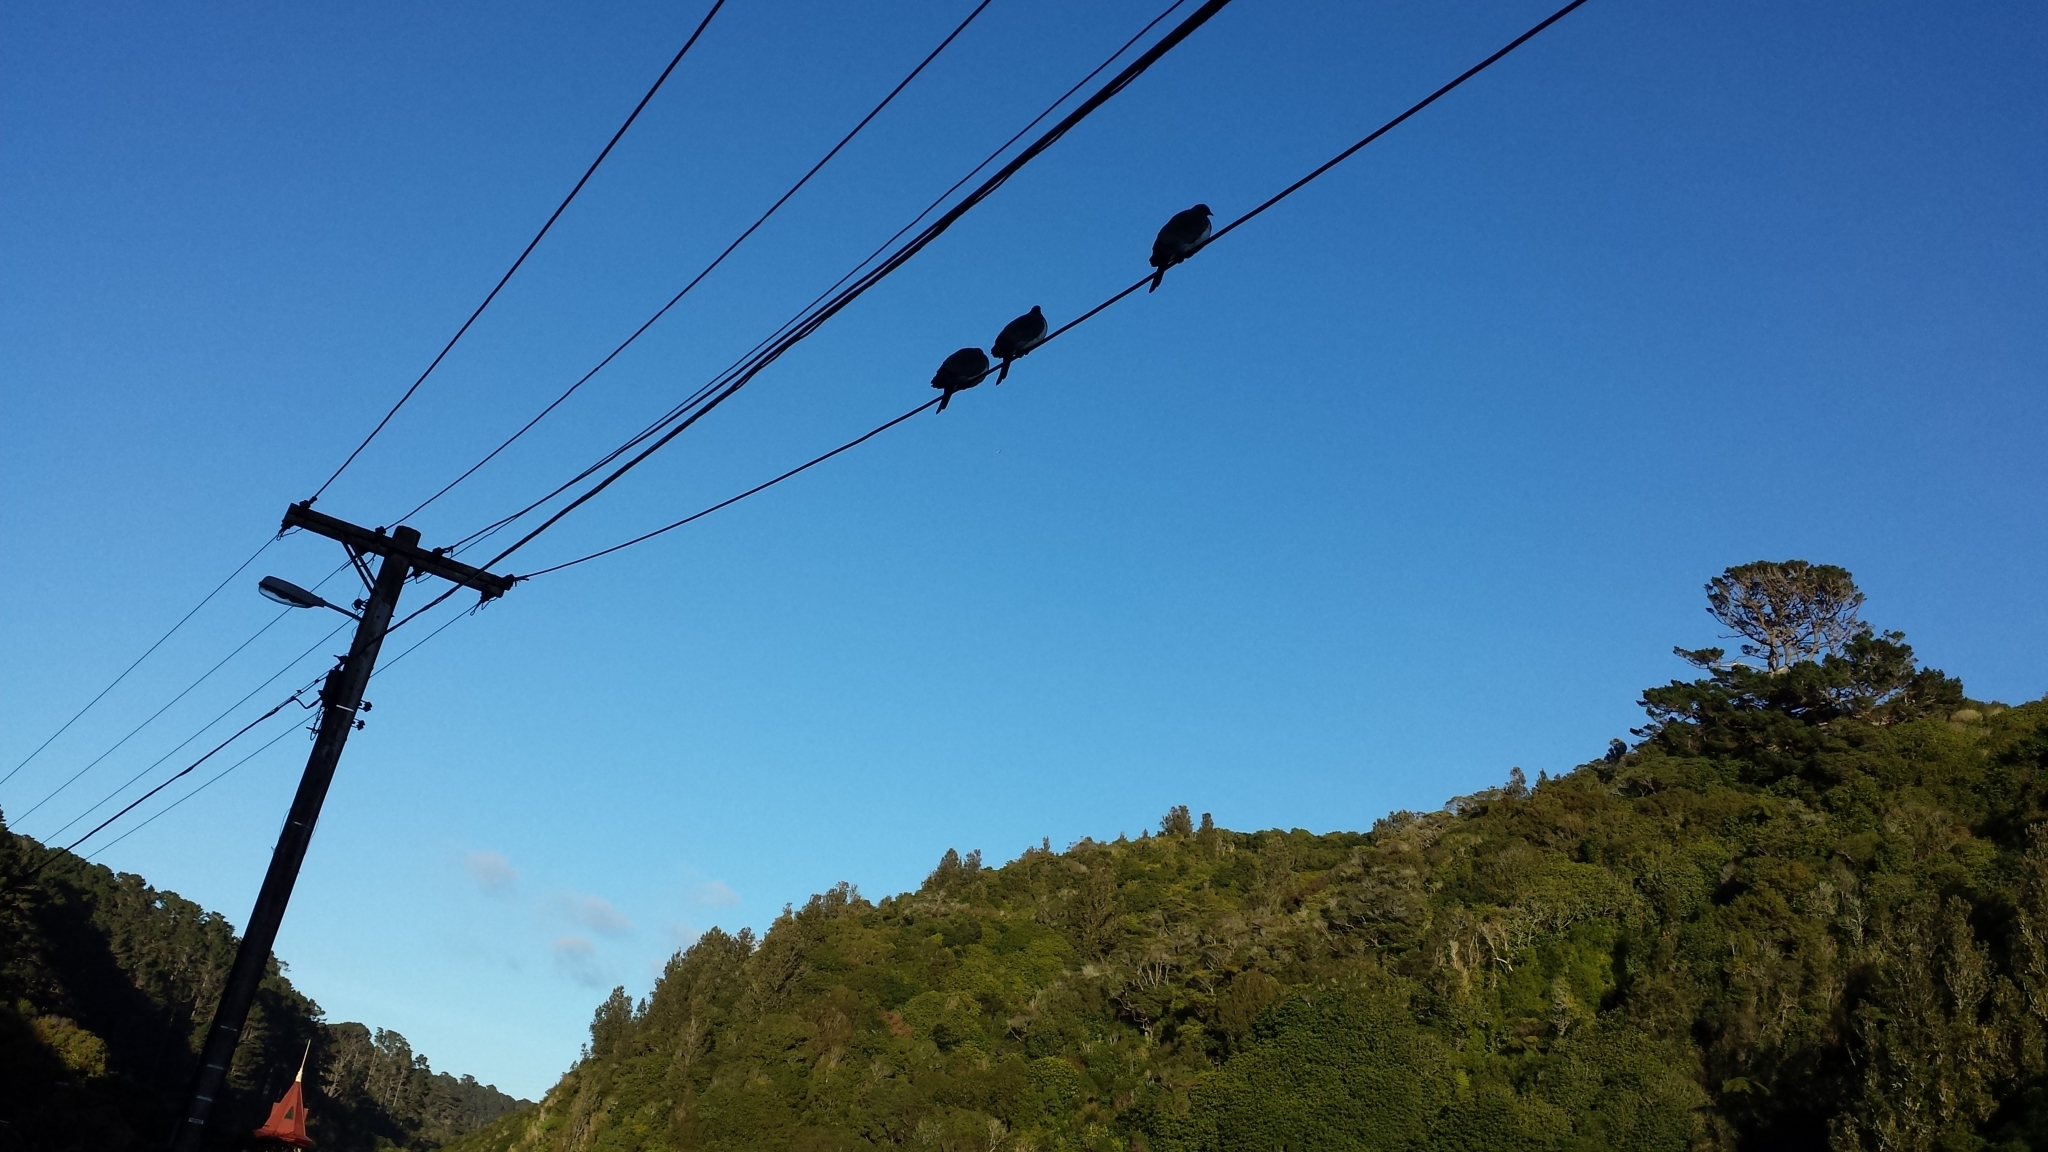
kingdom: Animalia
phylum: Chordata
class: Aves
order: Columbiformes
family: Columbidae
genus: Hemiphaga
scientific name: Hemiphaga novaeseelandiae
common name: New zealand pigeon
